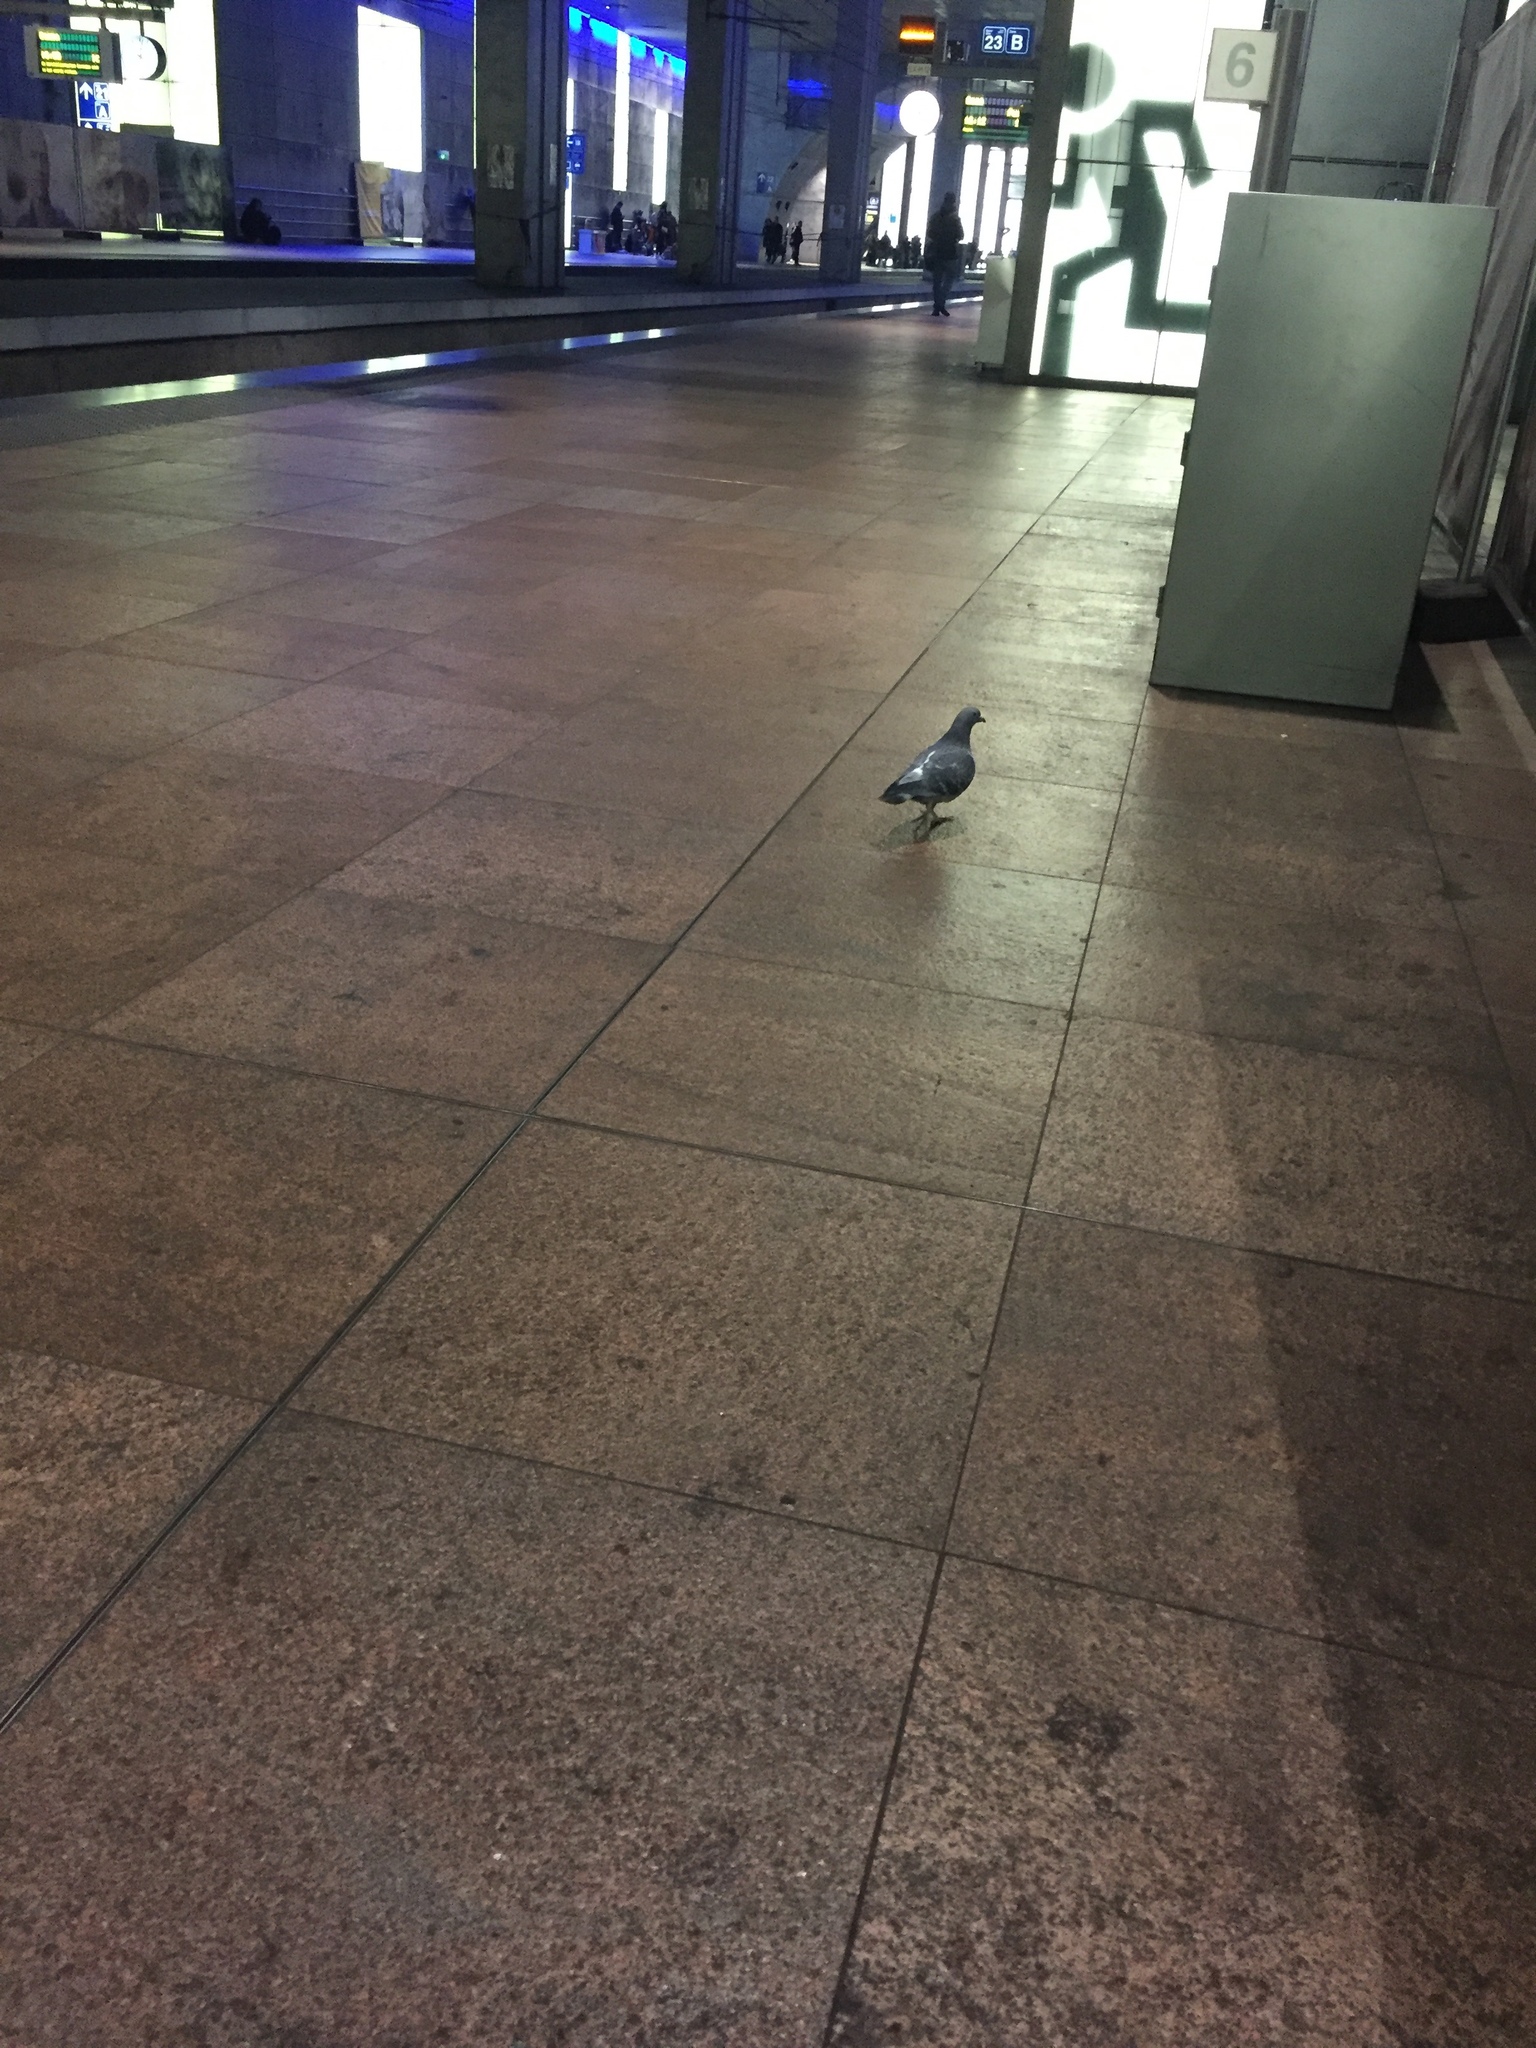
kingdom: Animalia
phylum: Chordata
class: Aves
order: Columbiformes
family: Columbidae
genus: Columba
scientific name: Columba livia
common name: Rock pigeon
